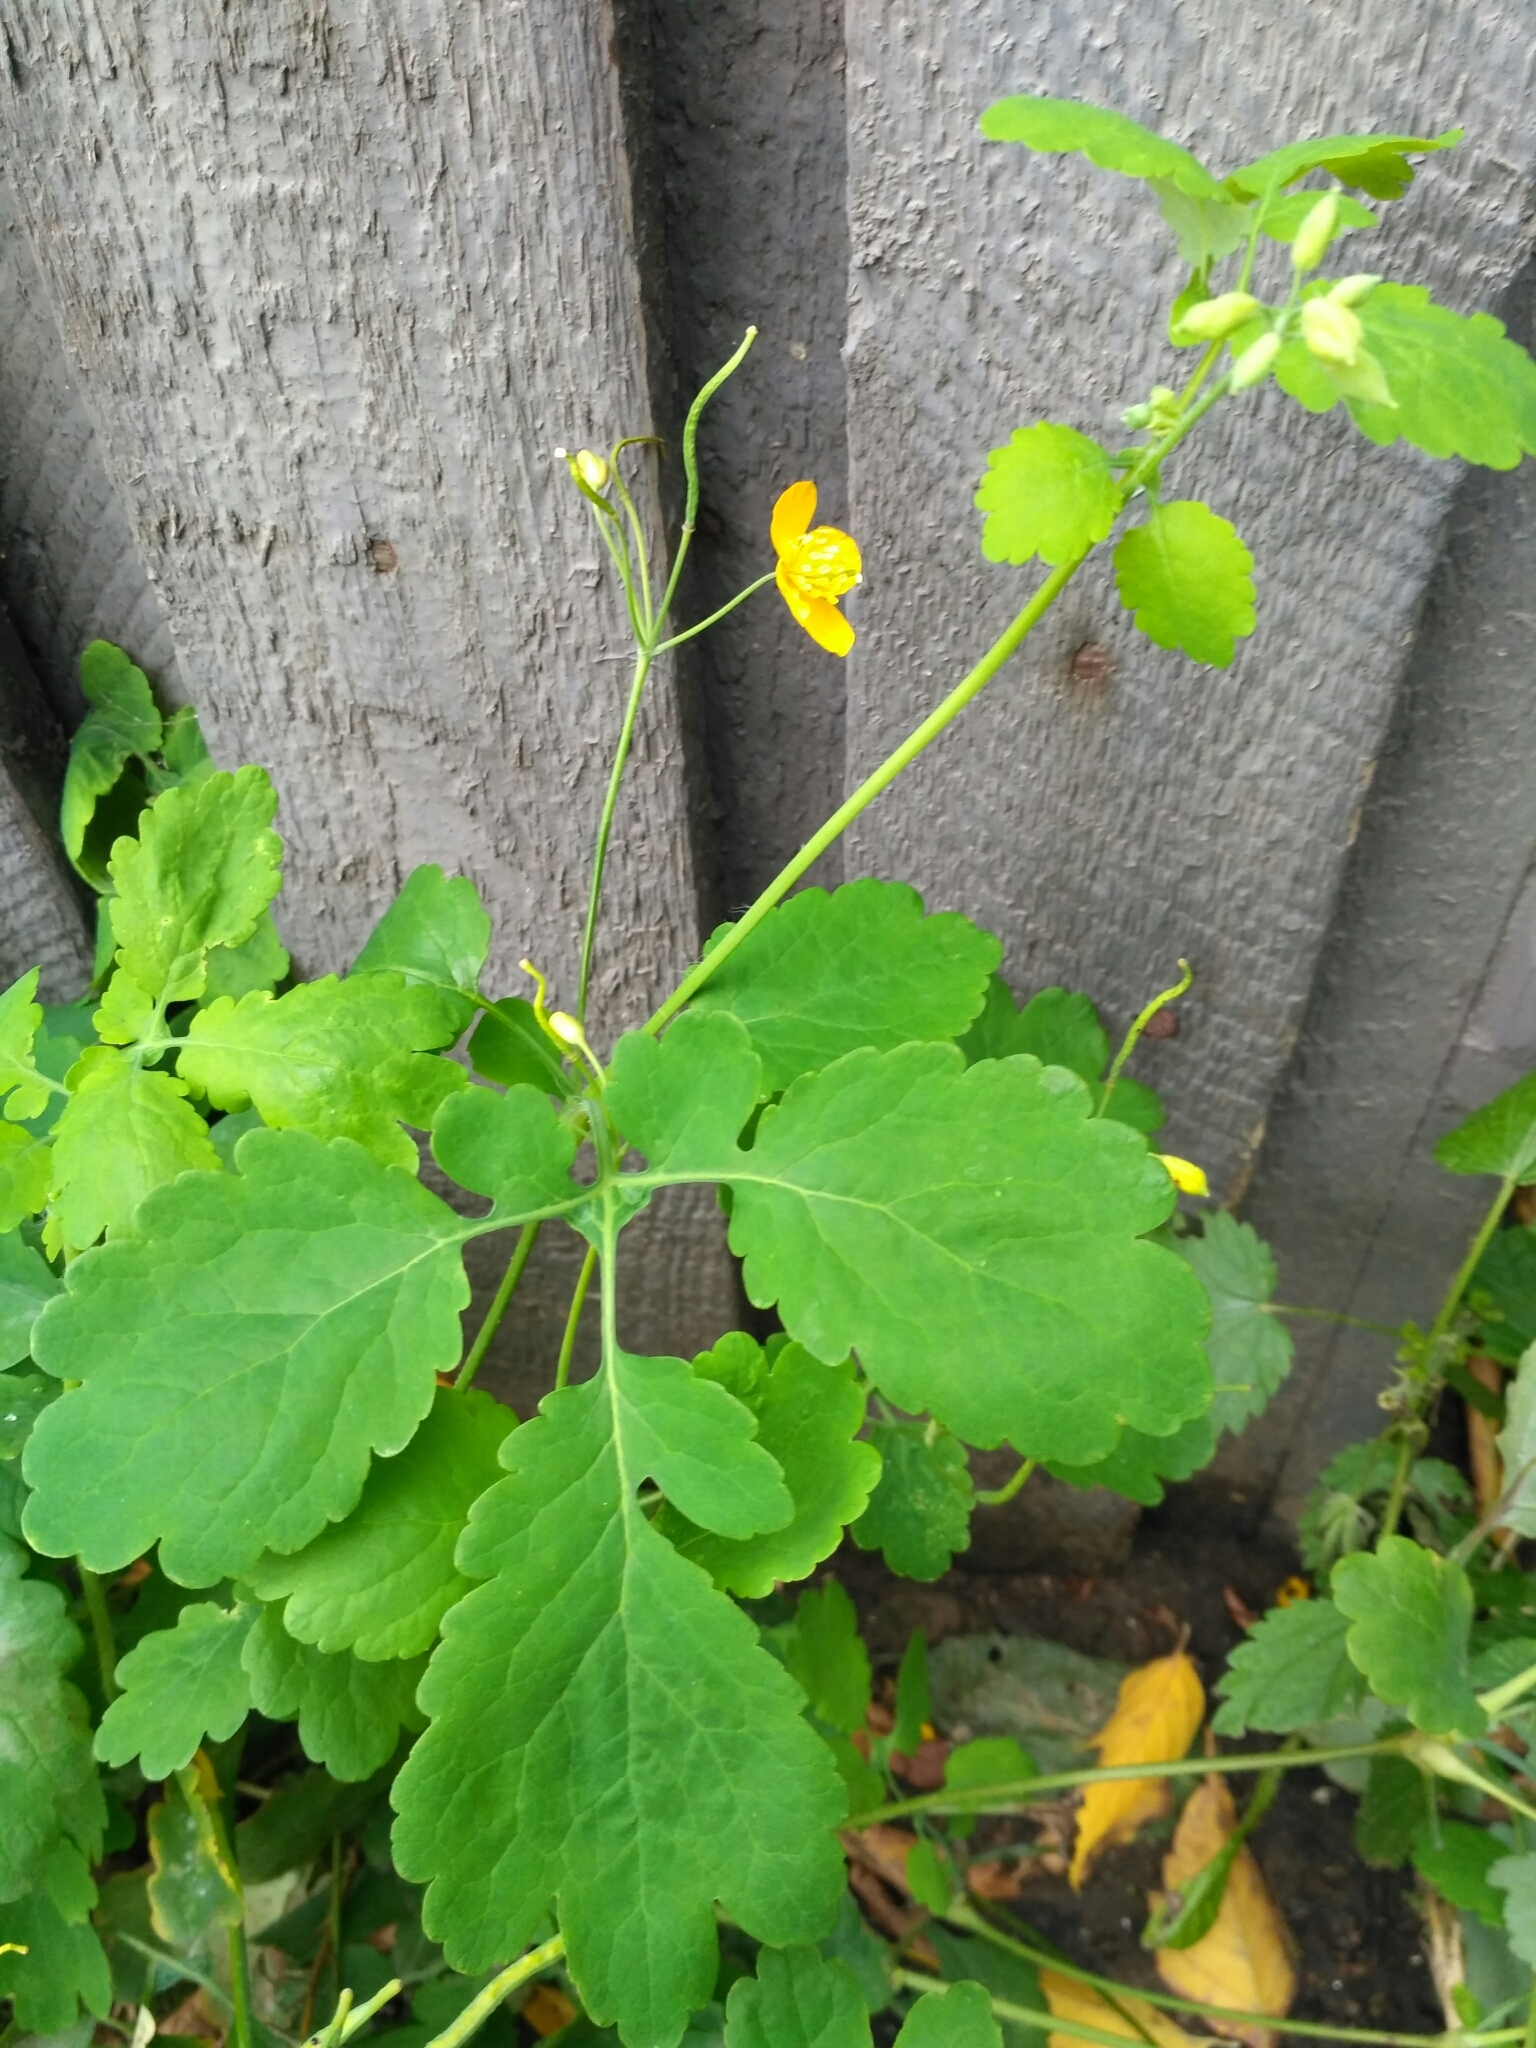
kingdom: Plantae
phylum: Tracheophyta
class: Magnoliopsida
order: Ranunculales
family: Papaveraceae
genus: Chelidonium
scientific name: Chelidonium majus
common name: Greater celandine
